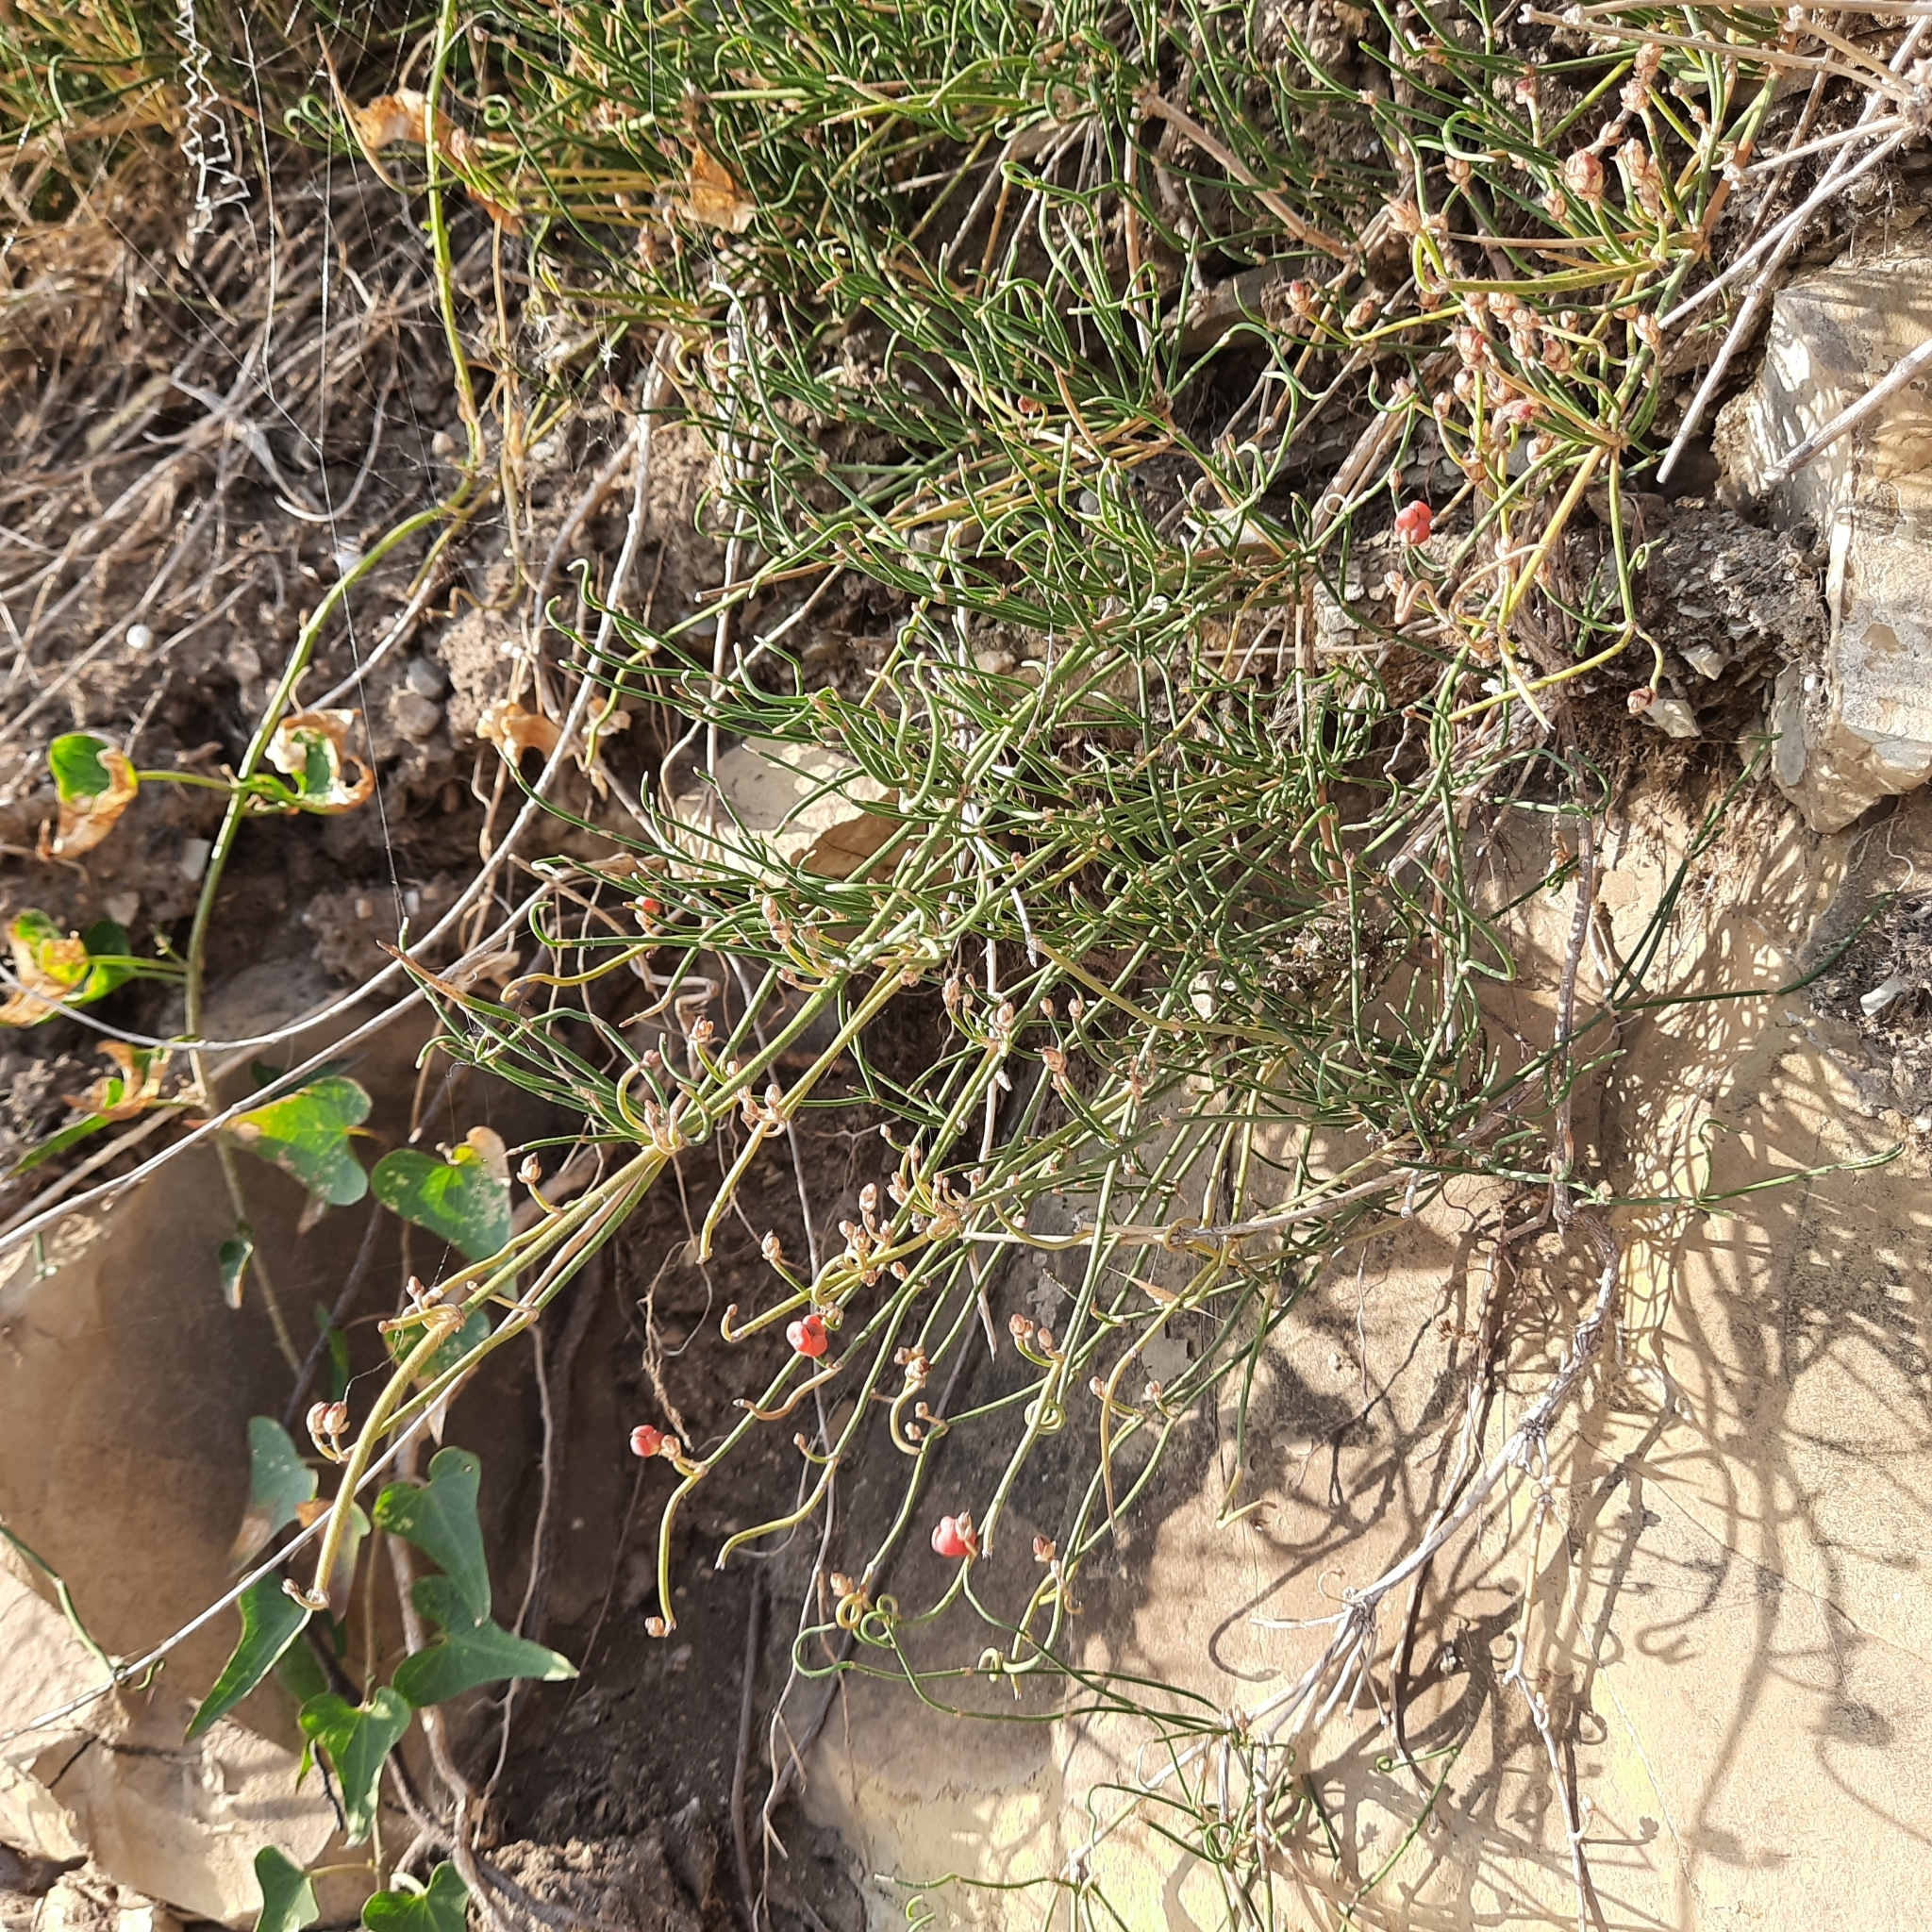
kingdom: Plantae
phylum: Tracheophyta
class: Gnetopsida
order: Ephedrales
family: Ephedraceae
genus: Ephedra
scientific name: Ephedra distachya
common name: Sea grape
